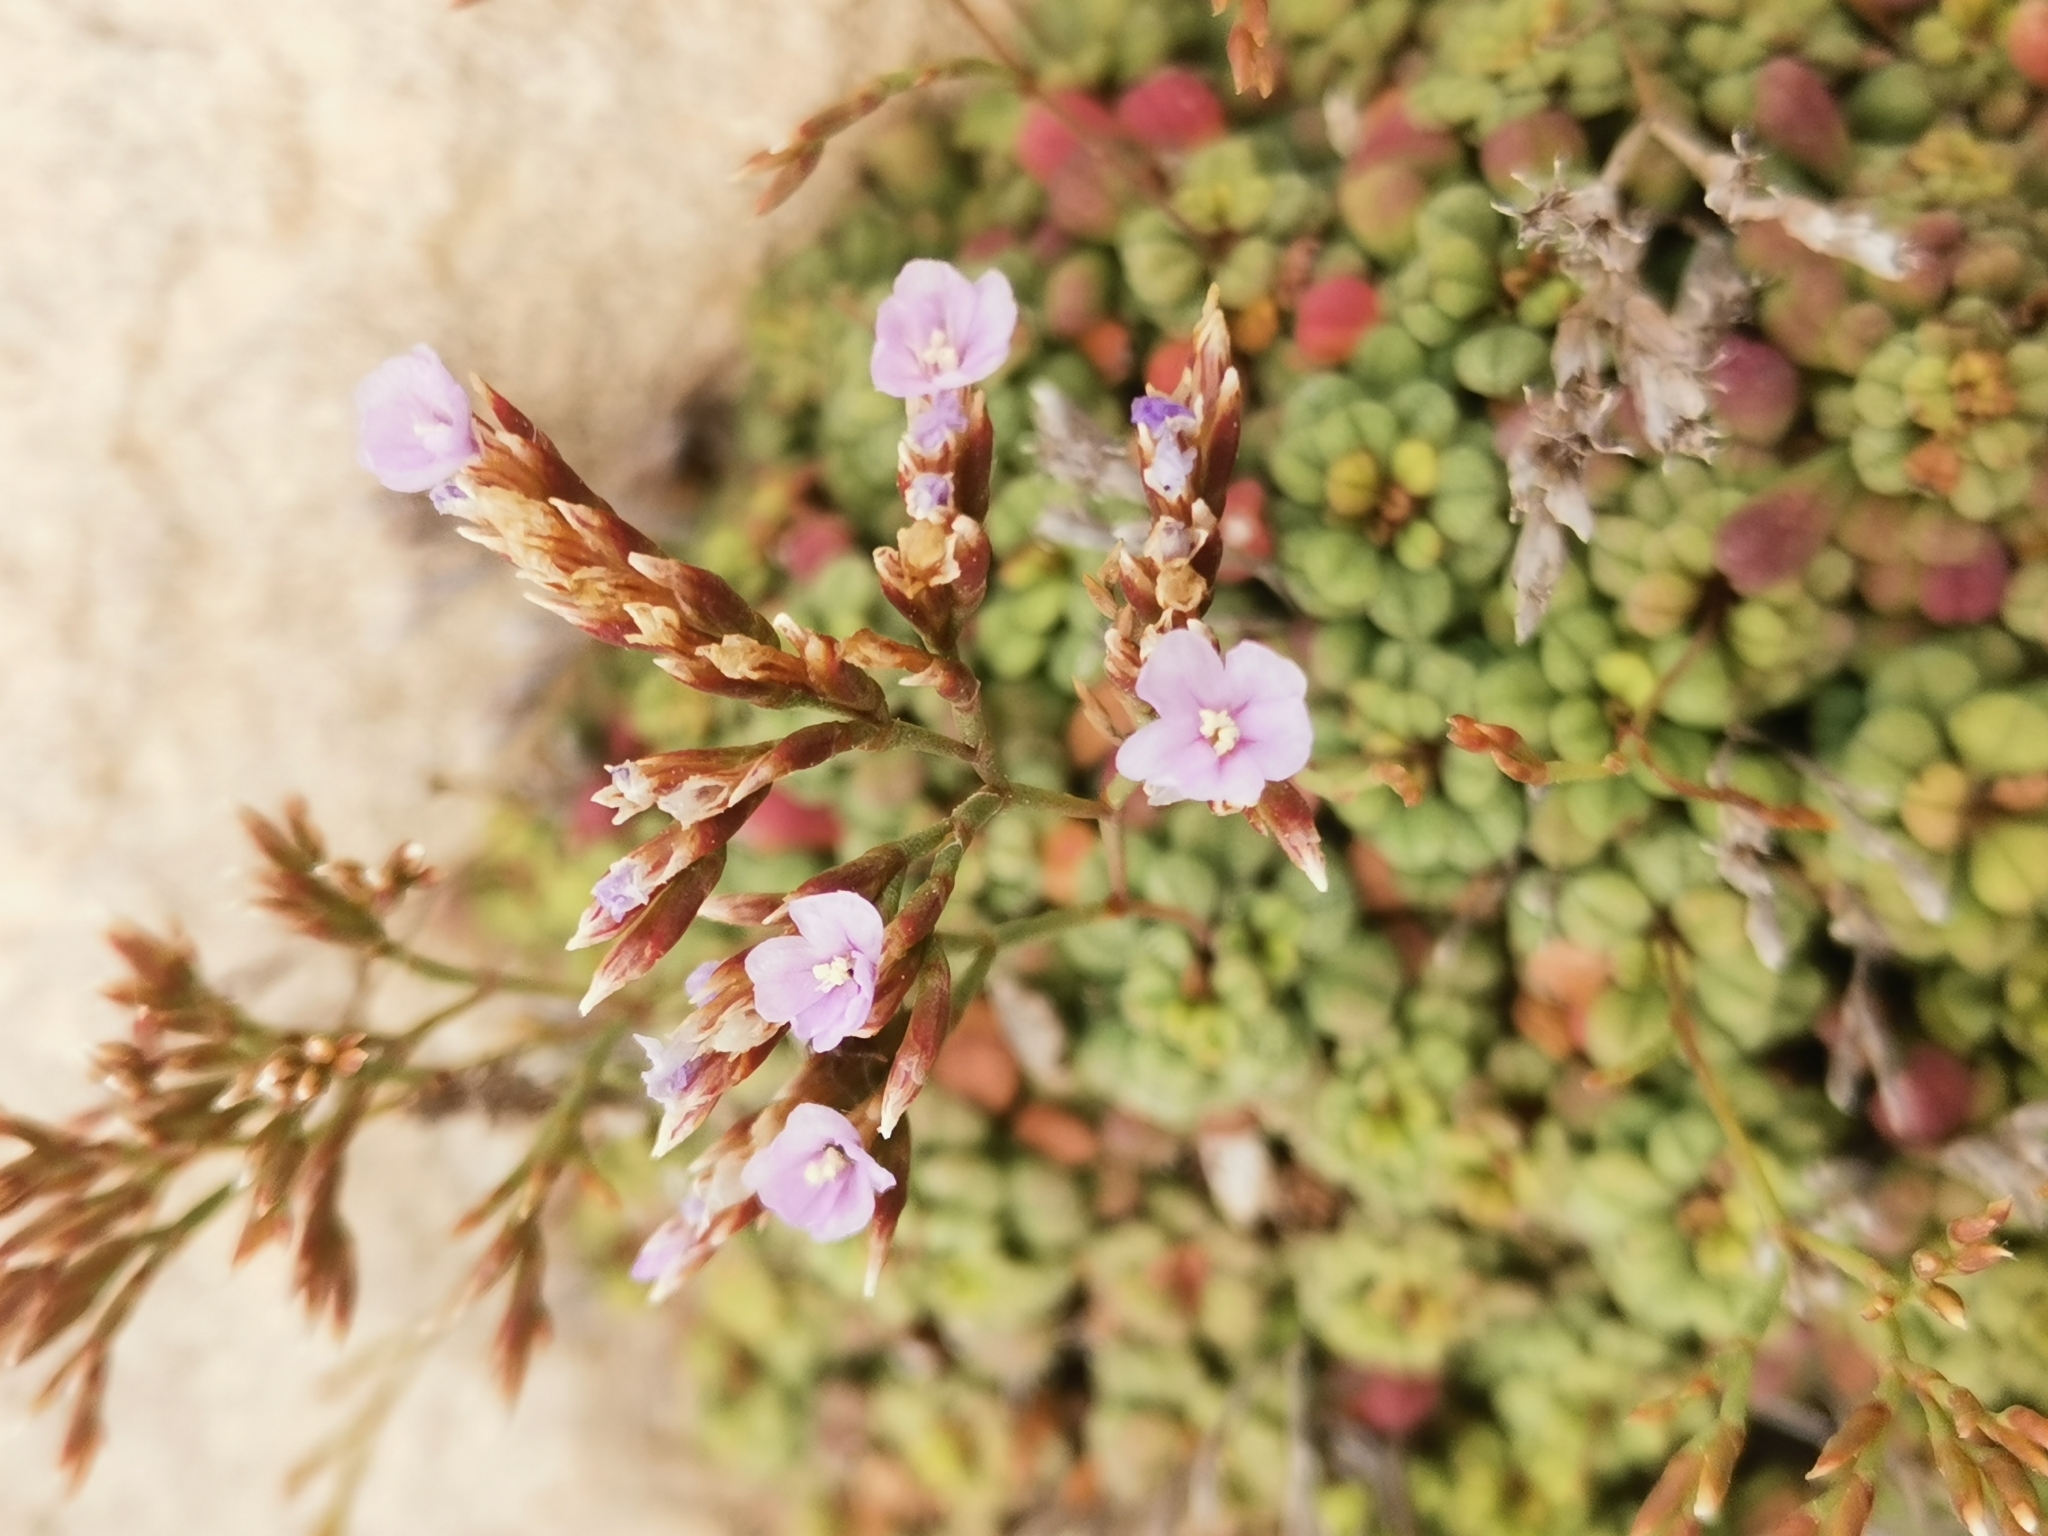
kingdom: Plantae
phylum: Tracheophyta
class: Magnoliopsida
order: Caryophyllales
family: Plumbaginaceae
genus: Limonium
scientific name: Limonium minutum
